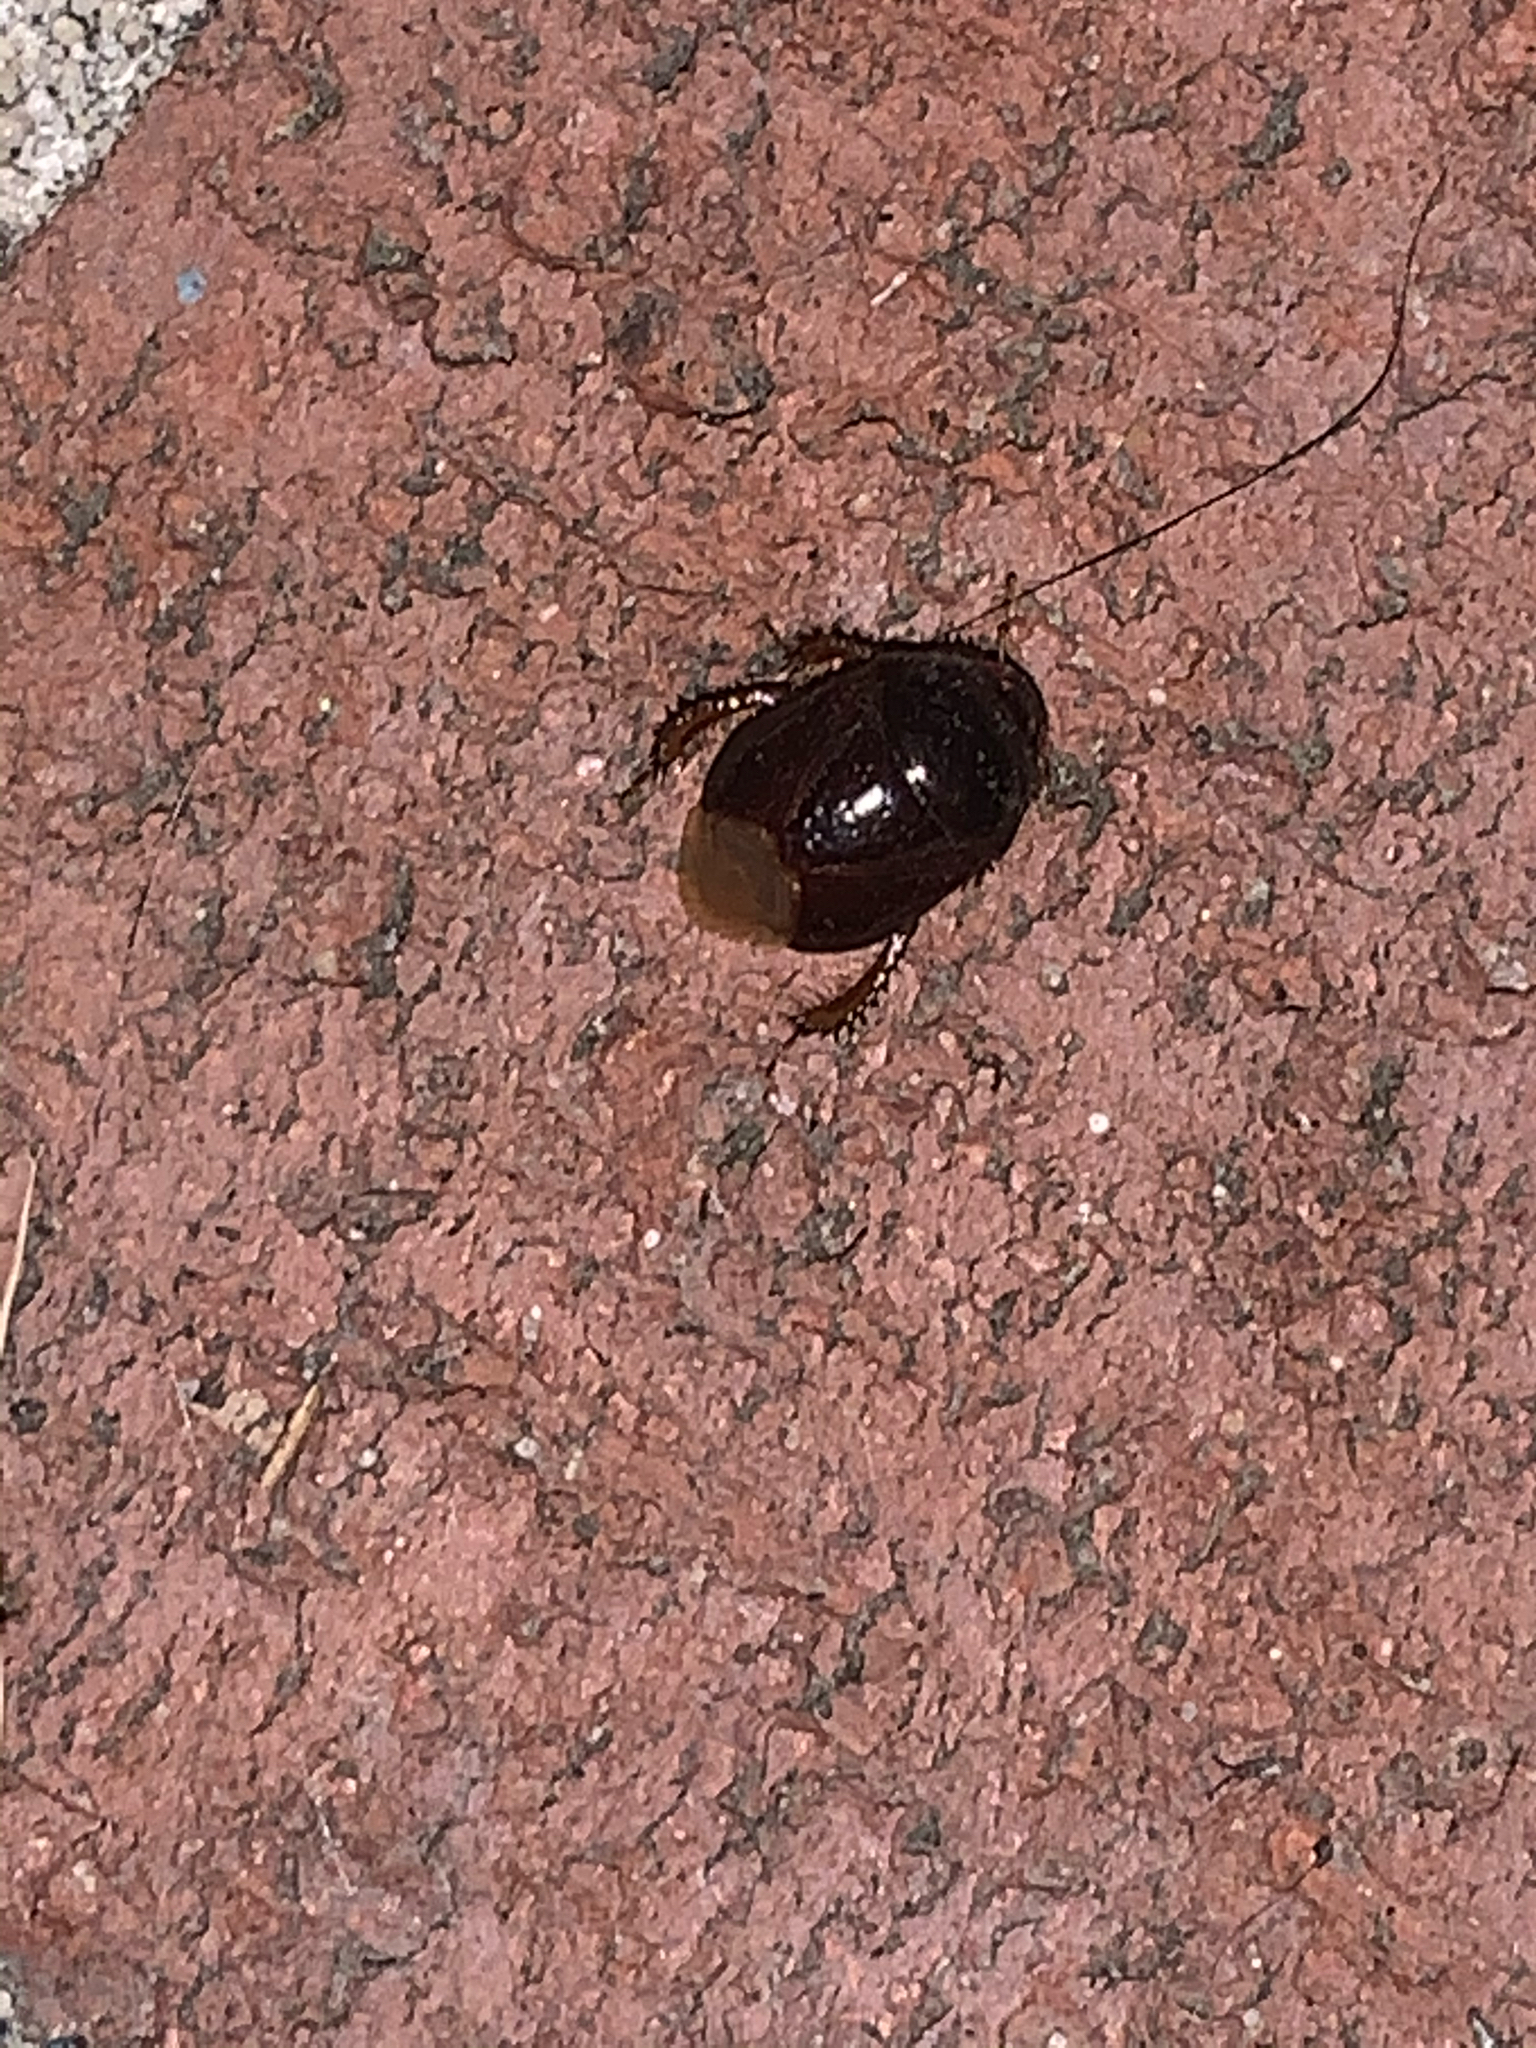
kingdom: Animalia
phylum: Arthropoda
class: Insecta
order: Hemiptera
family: Cydnidae
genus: Pangaeus
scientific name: Pangaeus bilineatus
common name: Burrower bug
